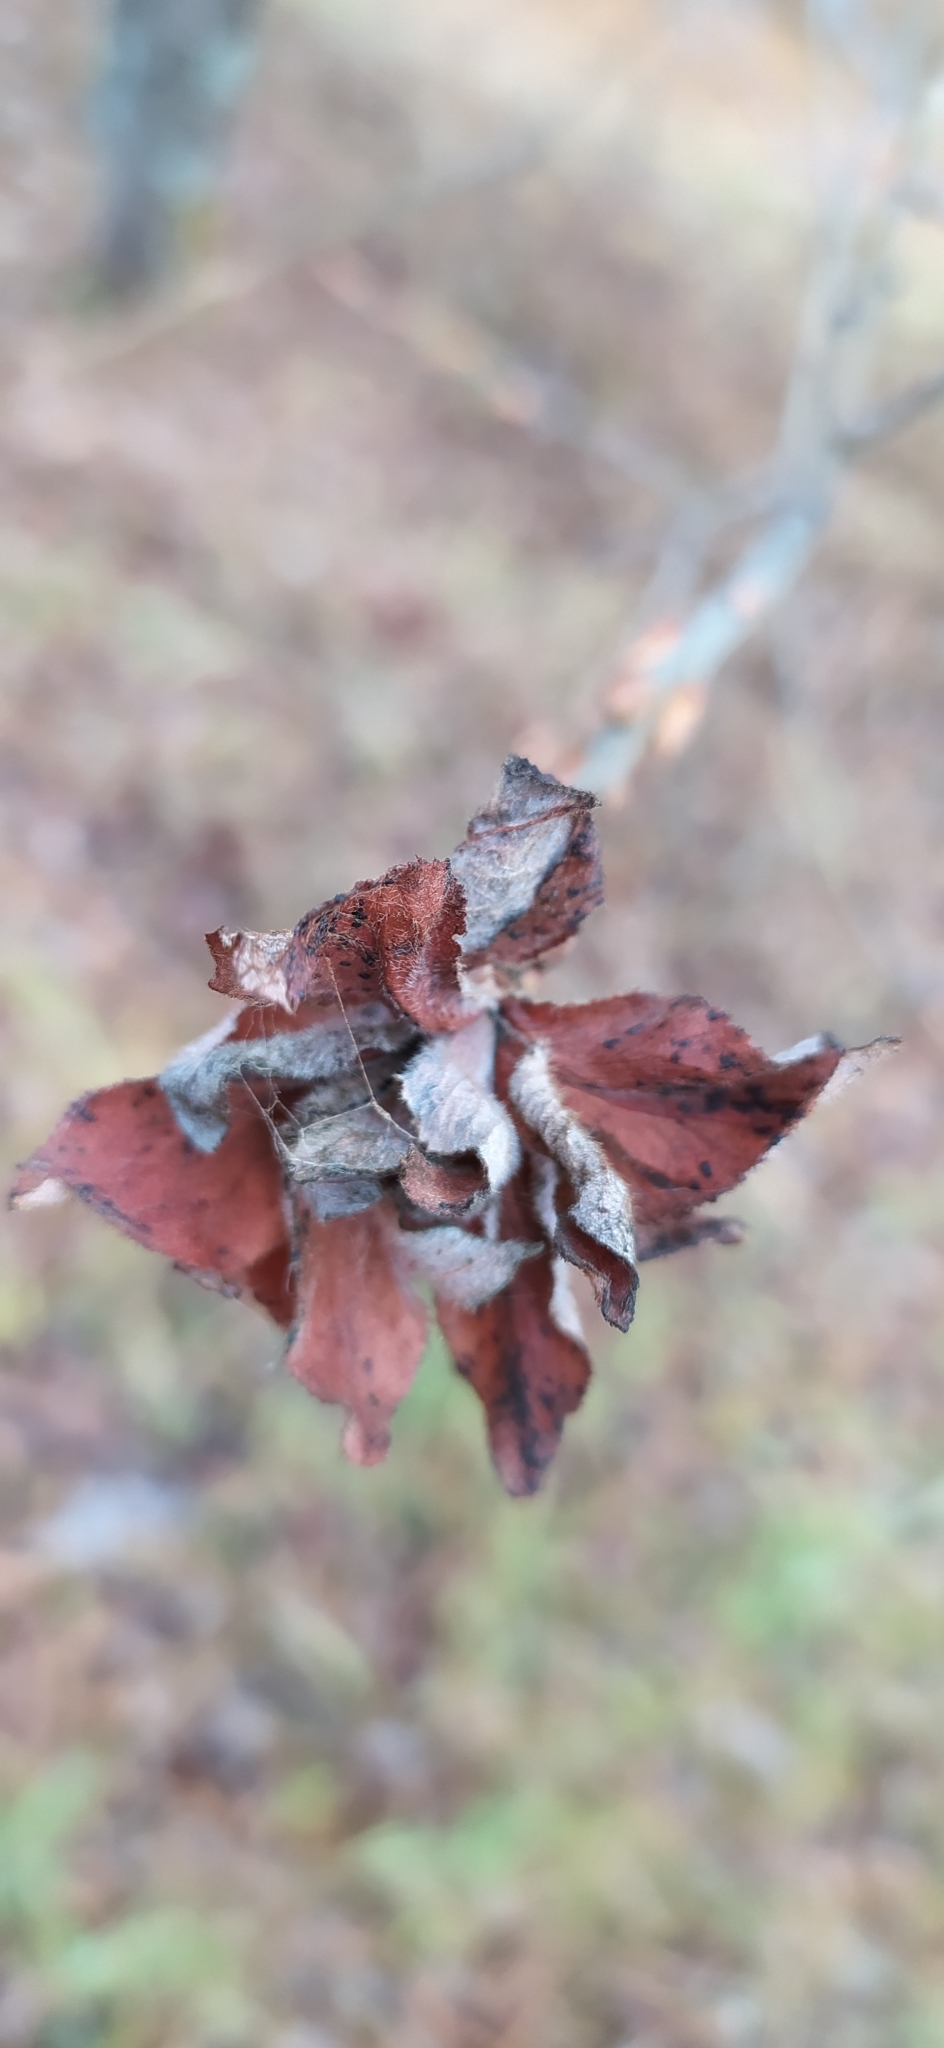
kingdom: Animalia
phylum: Arthropoda
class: Insecta
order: Diptera
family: Cecidomyiidae
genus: Rabdophaga
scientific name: Rabdophaga rosaria
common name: Willow rose gall midge
